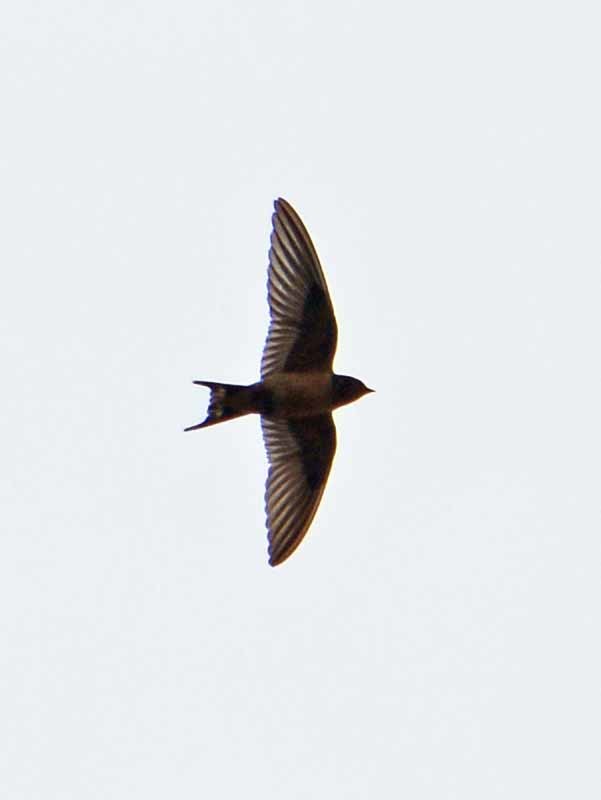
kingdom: Animalia
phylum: Chordata
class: Aves
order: Passeriformes
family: Hirundinidae
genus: Hirundo
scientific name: Hirundo rustica
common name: Barn swallow
